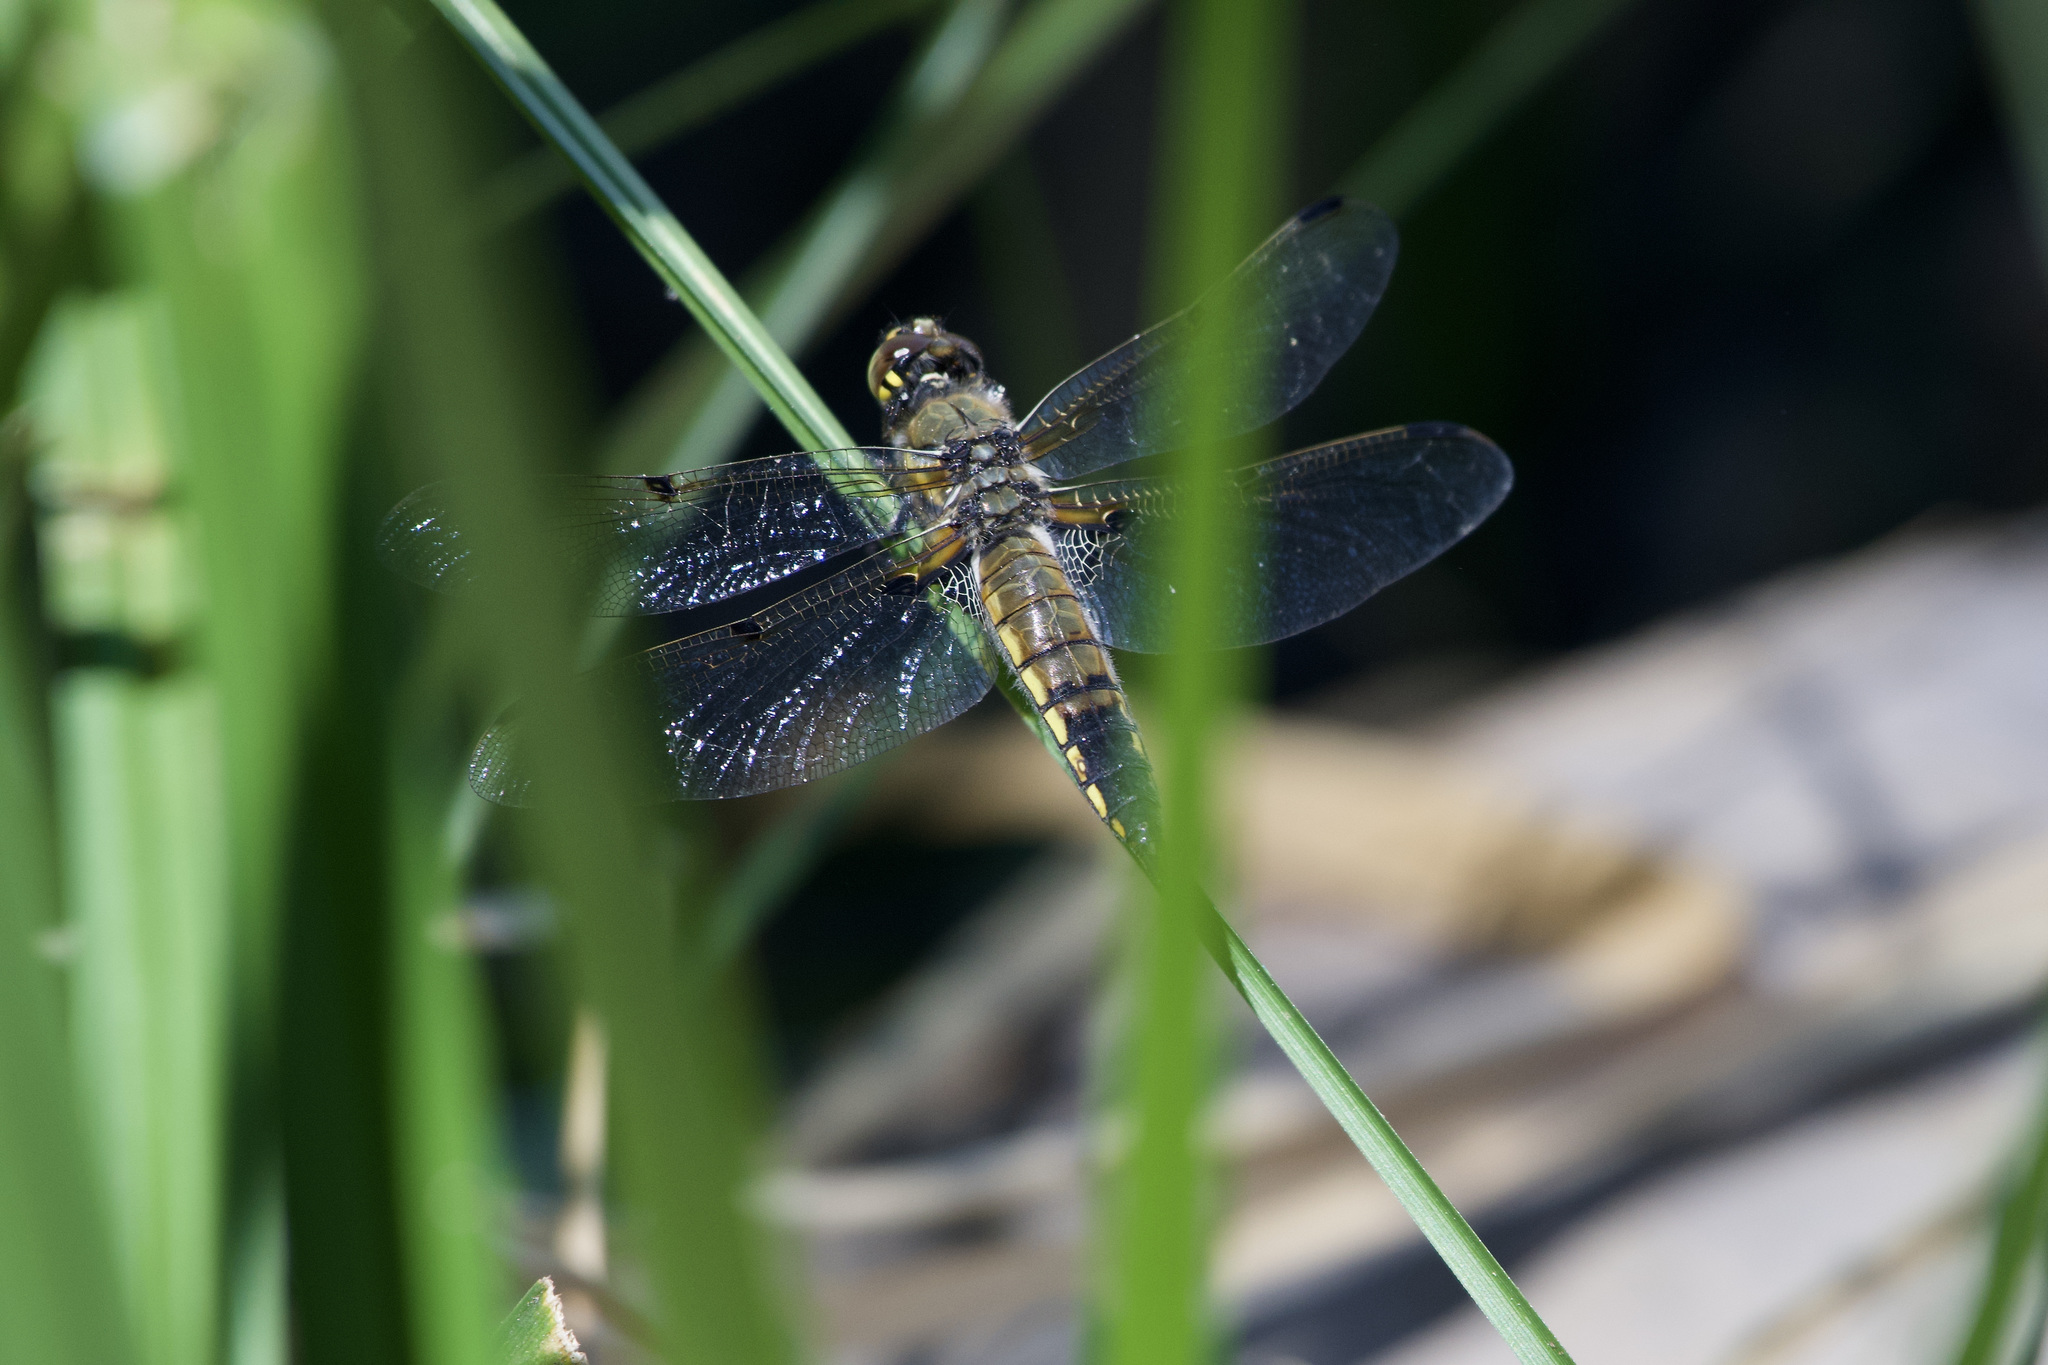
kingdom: Animalia
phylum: Arthropoda
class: Insecta
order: Odonata
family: Libellulidae
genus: Libellula
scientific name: Libellula quadrimaculata
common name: Four-spotted chaser
